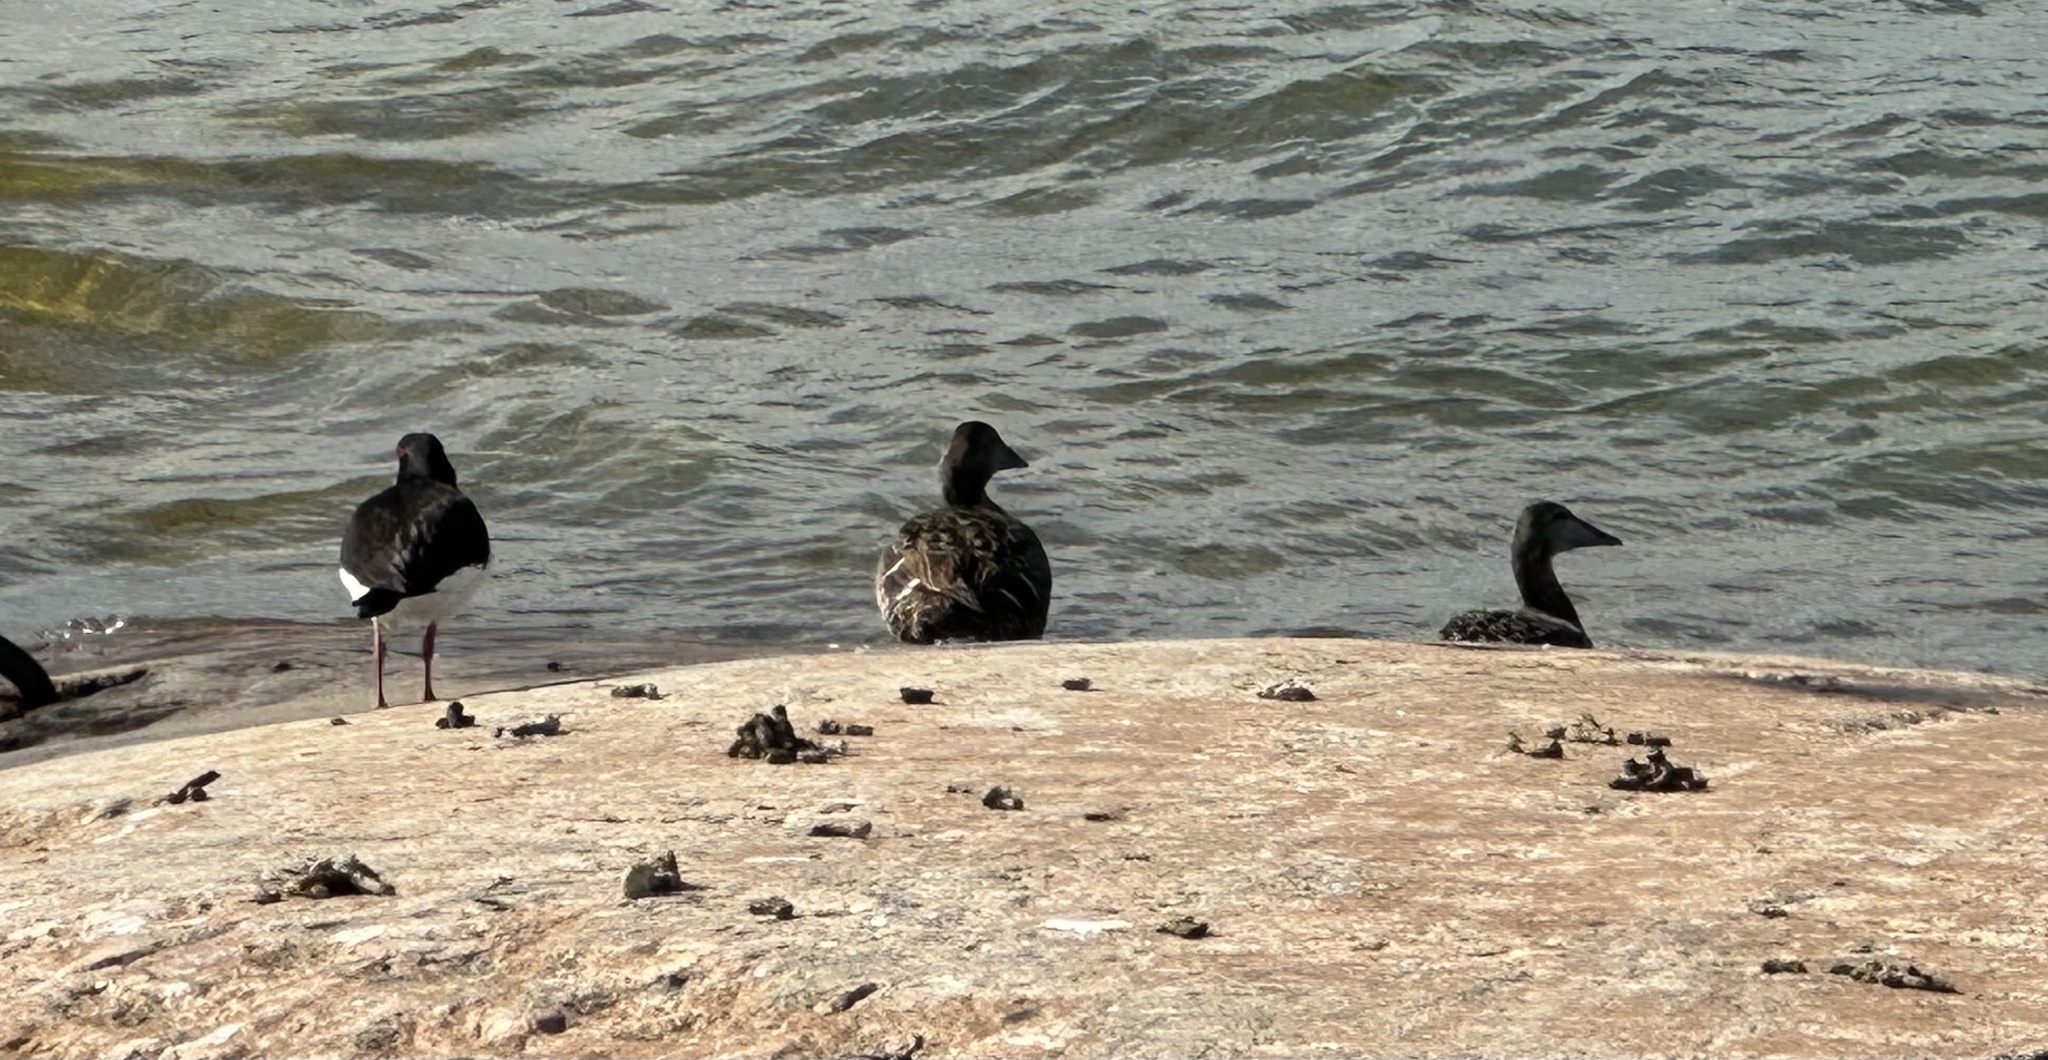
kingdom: Animalia
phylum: Chordata
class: Aves
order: Anseriformes
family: Anatidae
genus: Somateria
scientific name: Somateria mollissima
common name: Common eider
